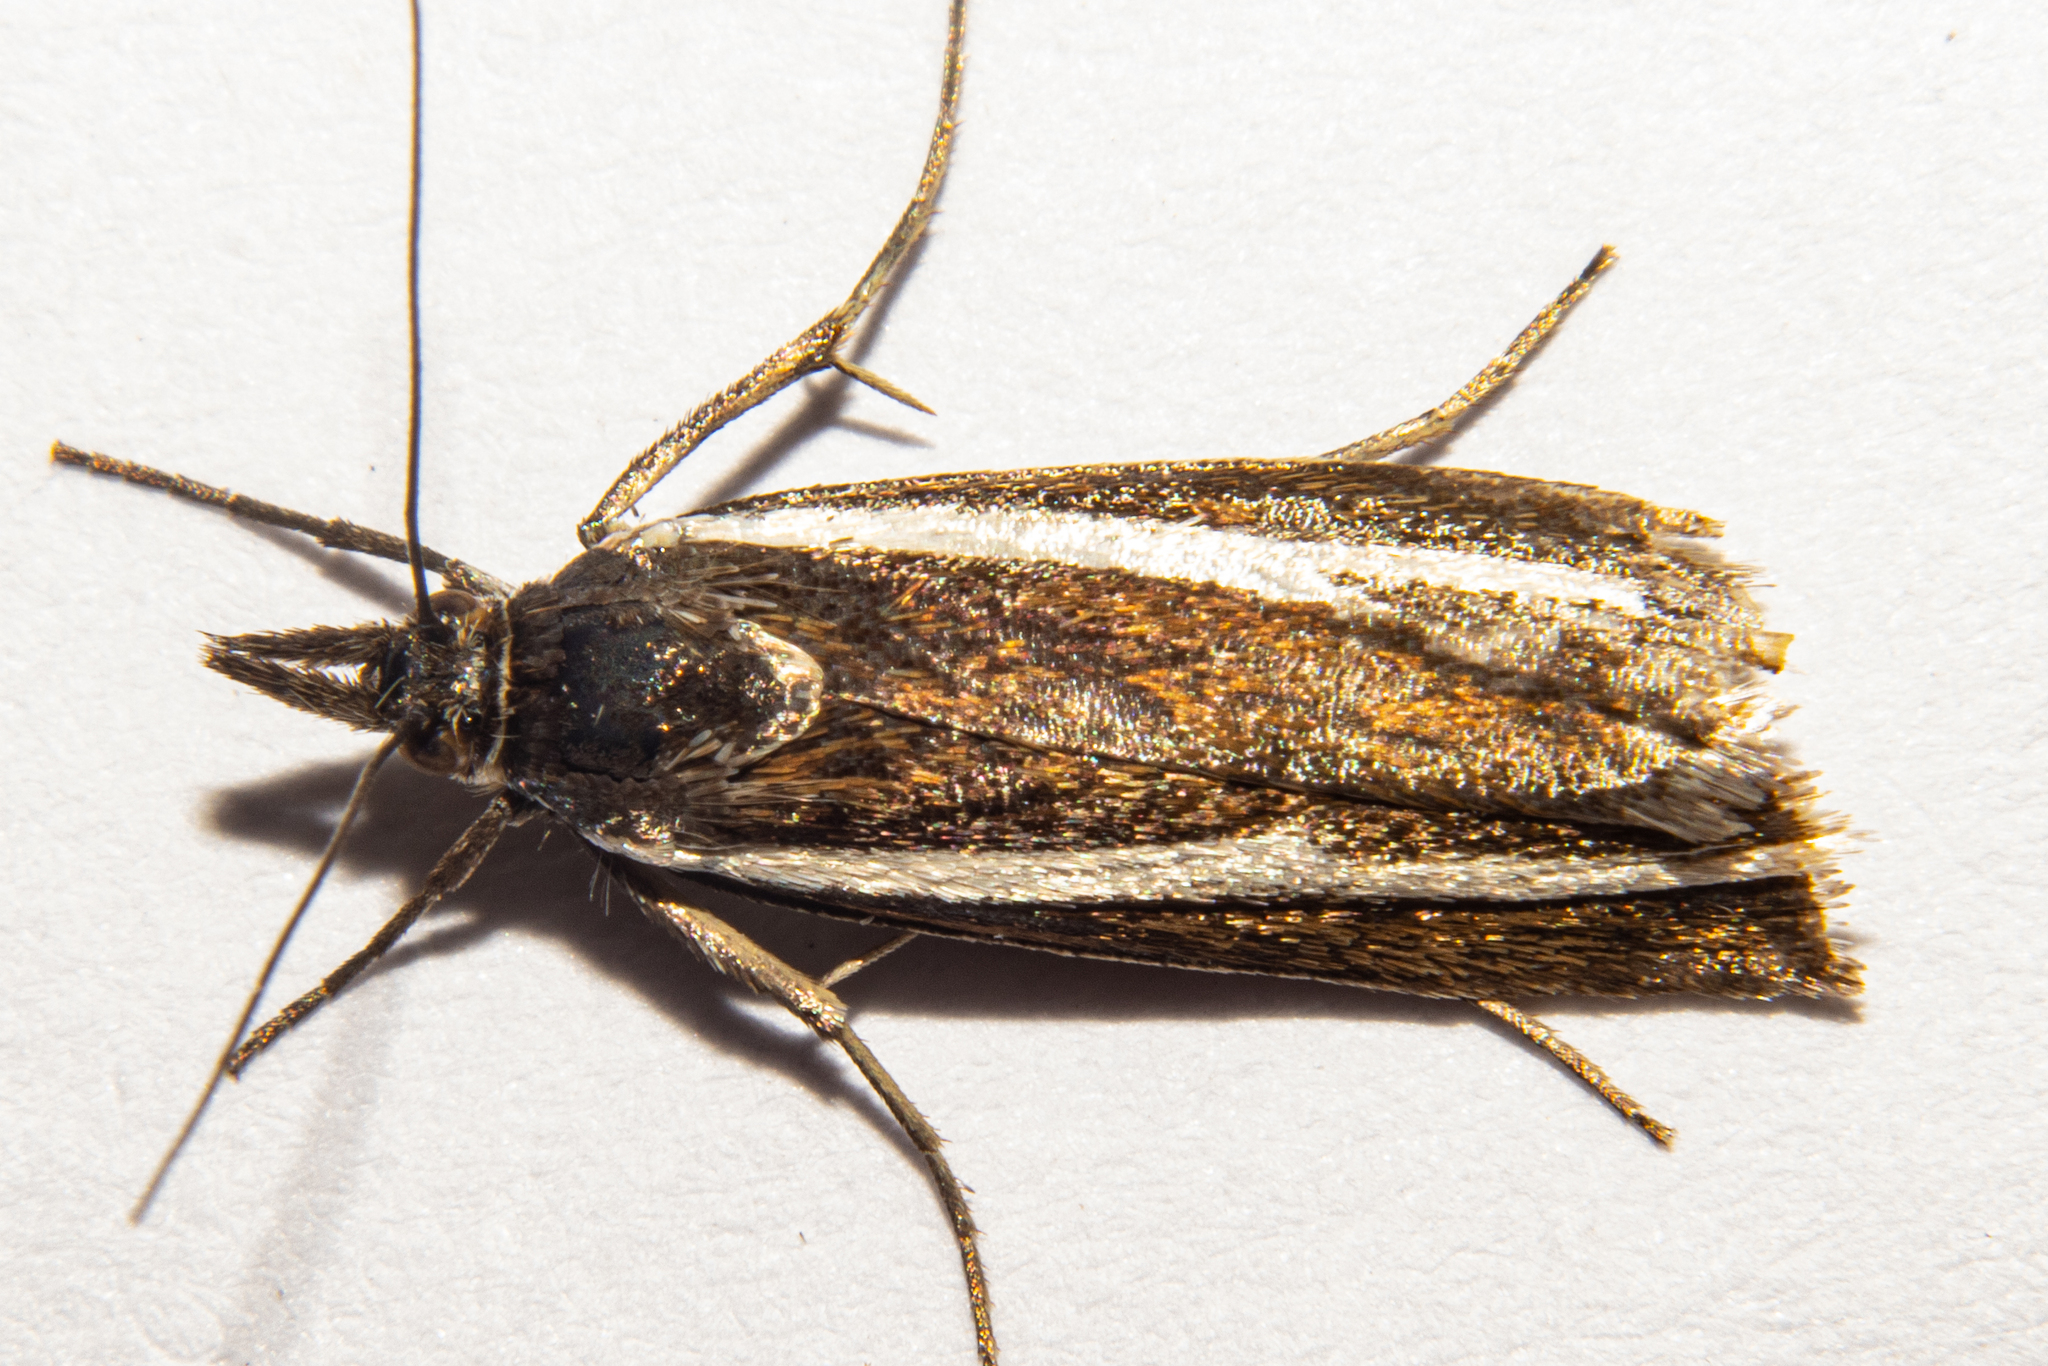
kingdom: Animalia
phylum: Arthropoda
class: Insecta
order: Lepidoptera
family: Crambidae
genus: Orocrambus
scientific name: Orocrambus catacaustus
